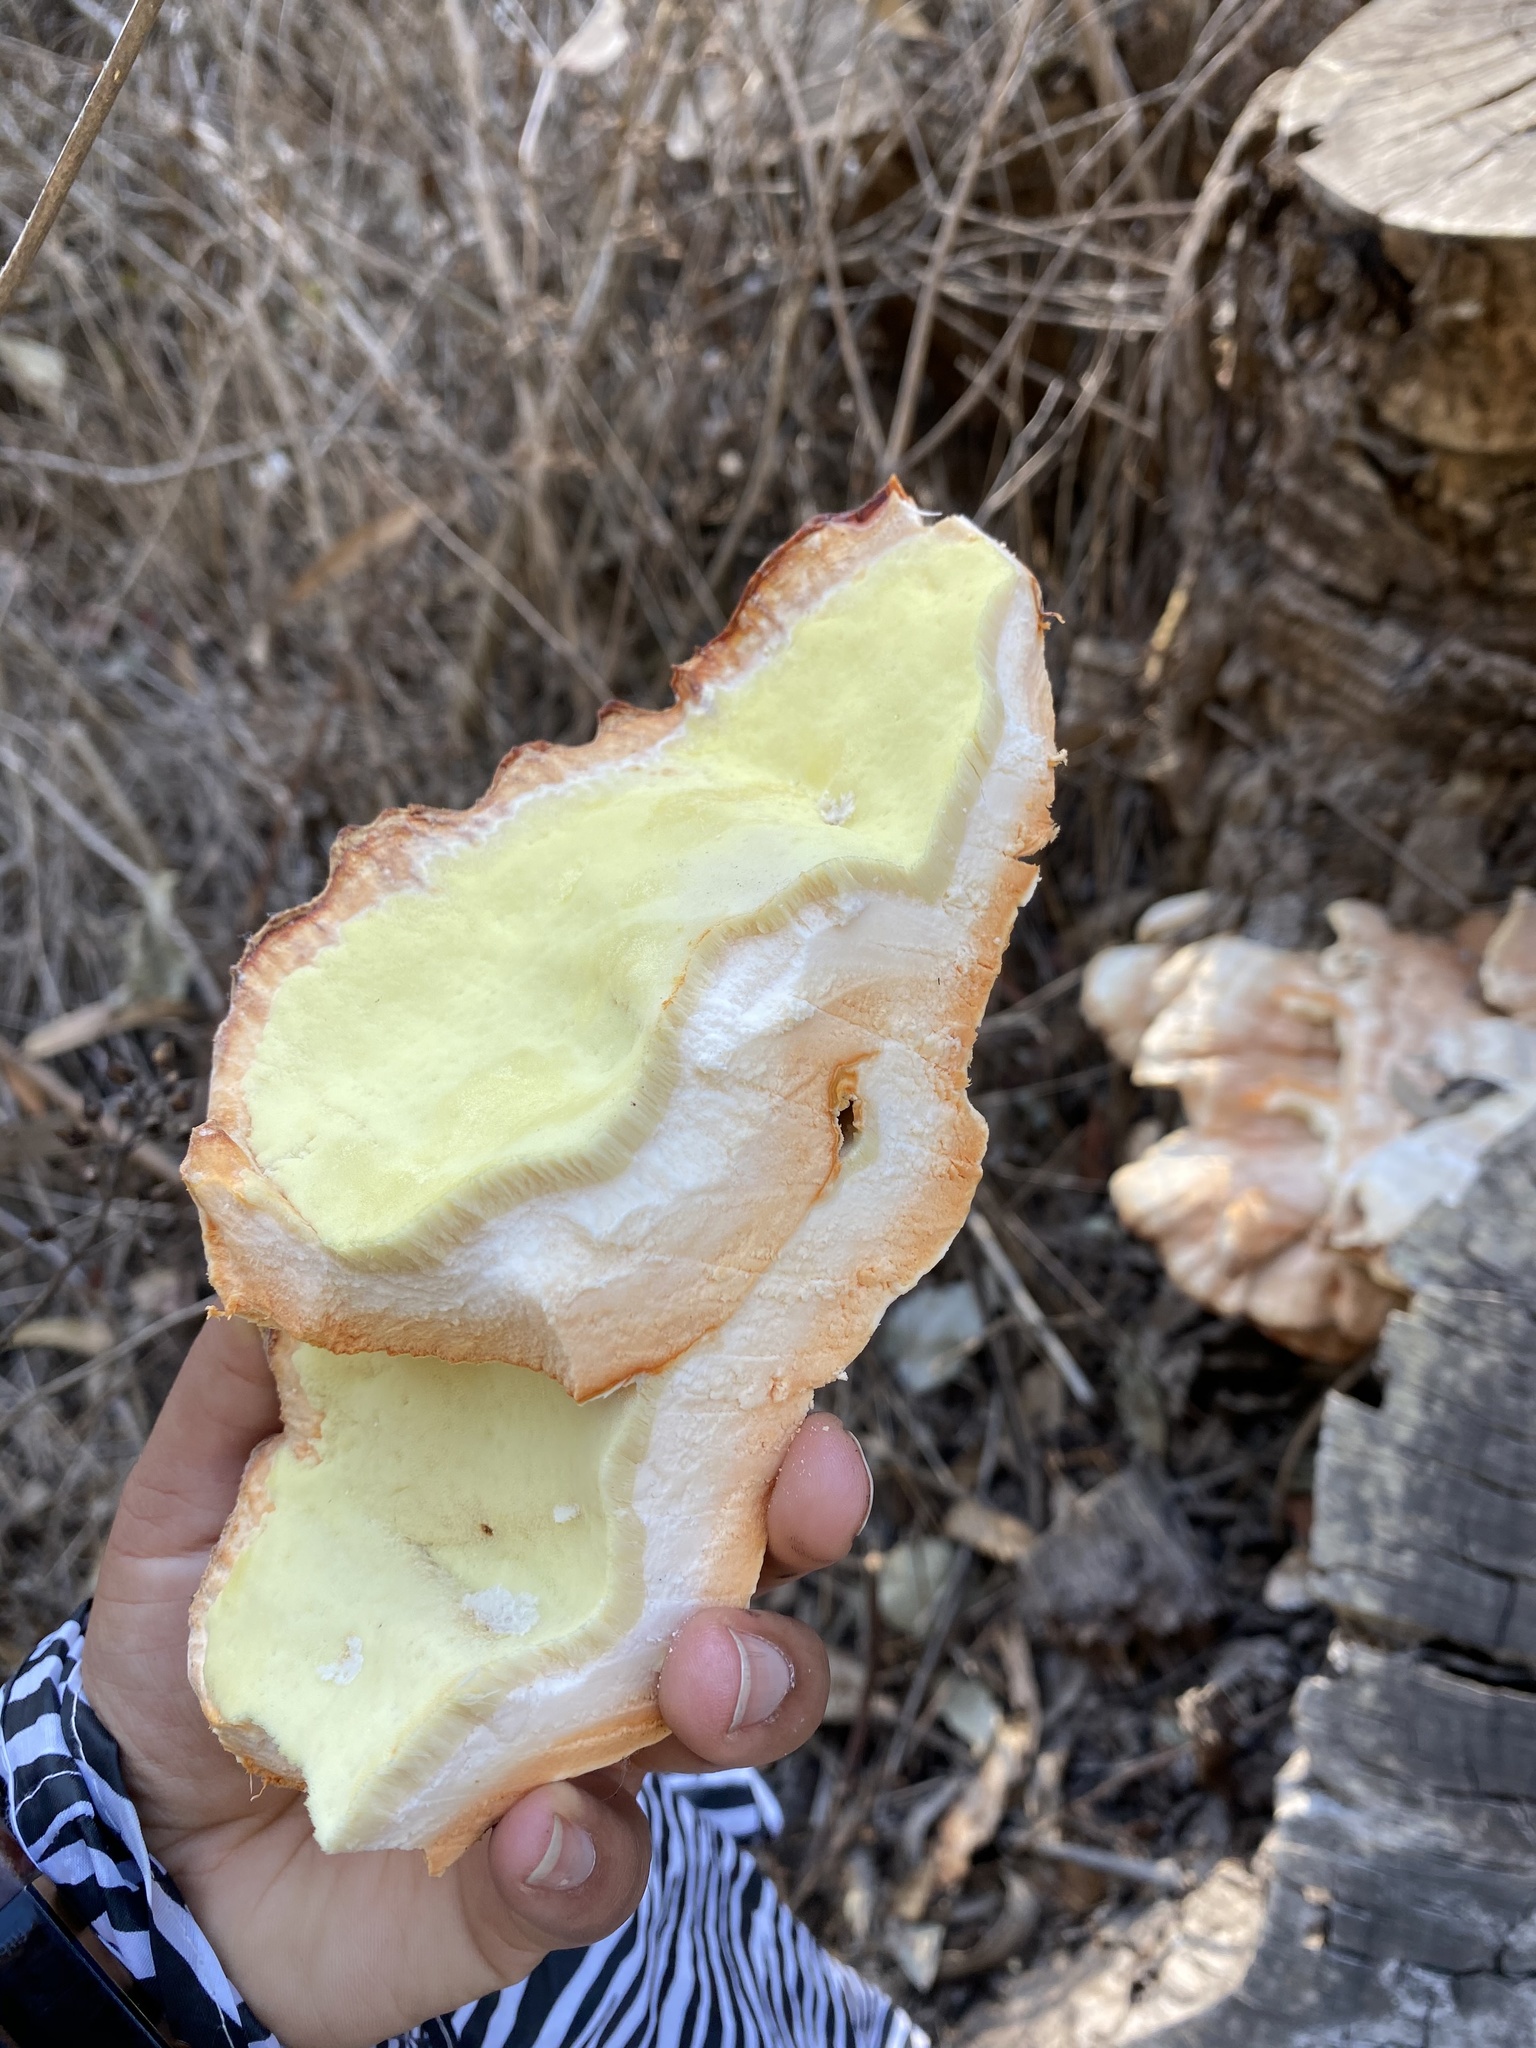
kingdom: Fungi
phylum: Basidiomycota
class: Agaricomycetes
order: Polyporales
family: Laetiporaceae
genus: Laetiporus
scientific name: Laetiporus gilbertsonii
